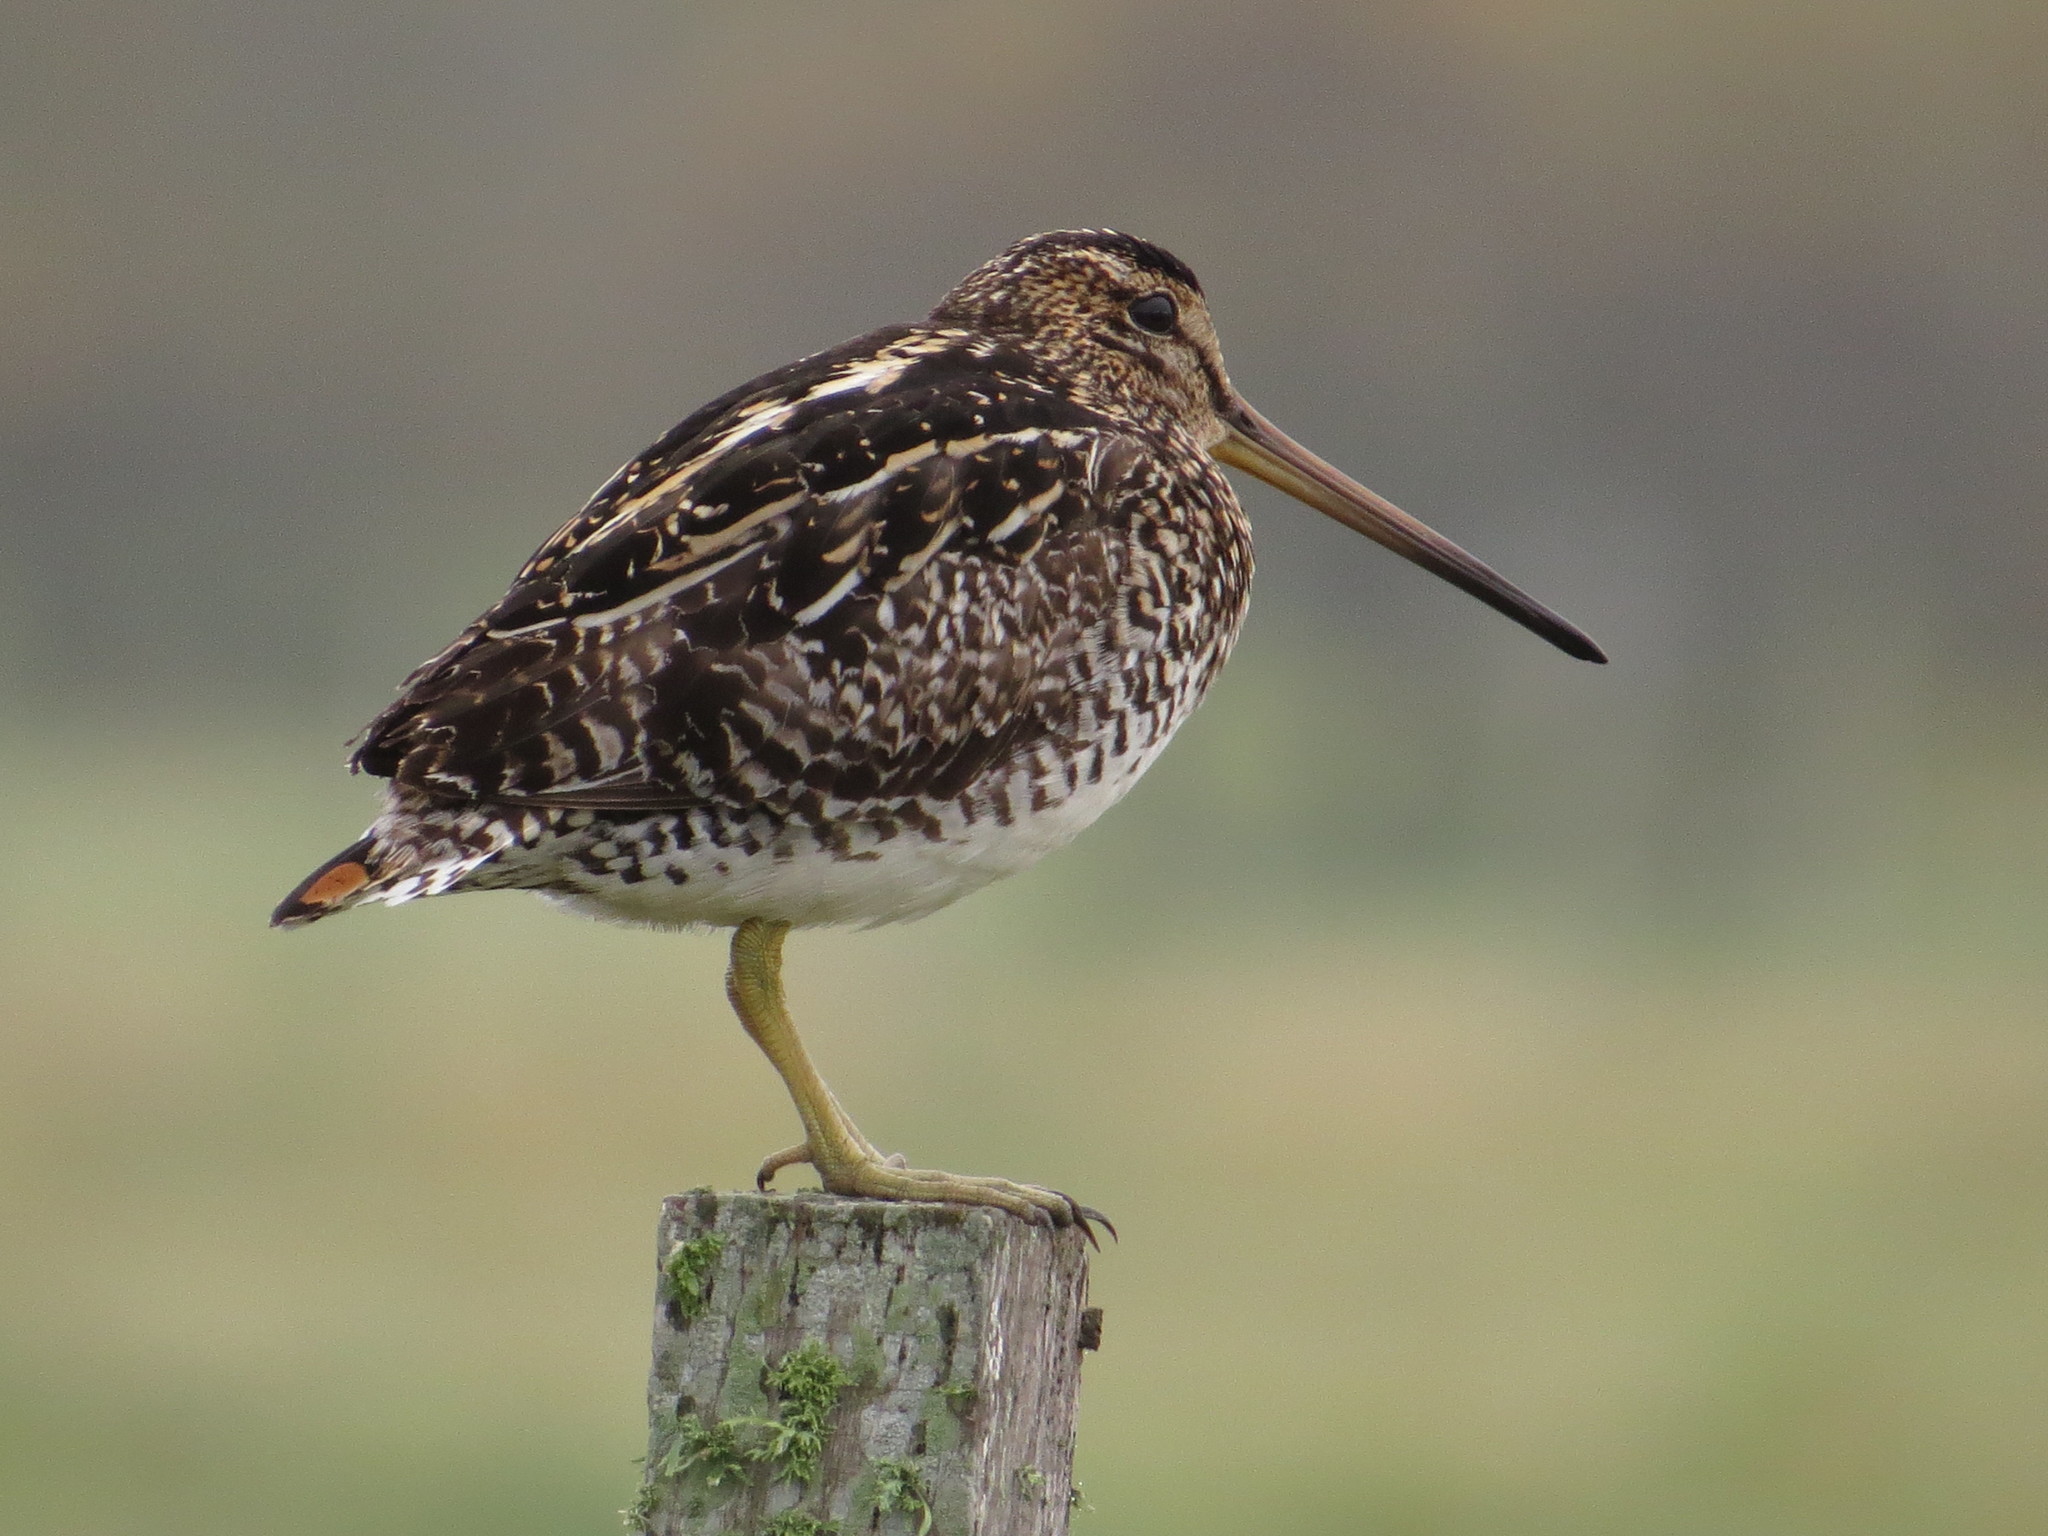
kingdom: Animalia
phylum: Chordata
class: Aves
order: Charadriiformes
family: Scolopacidae
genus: Gallinago
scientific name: Gallinago paraguaiae
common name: South american snipe
